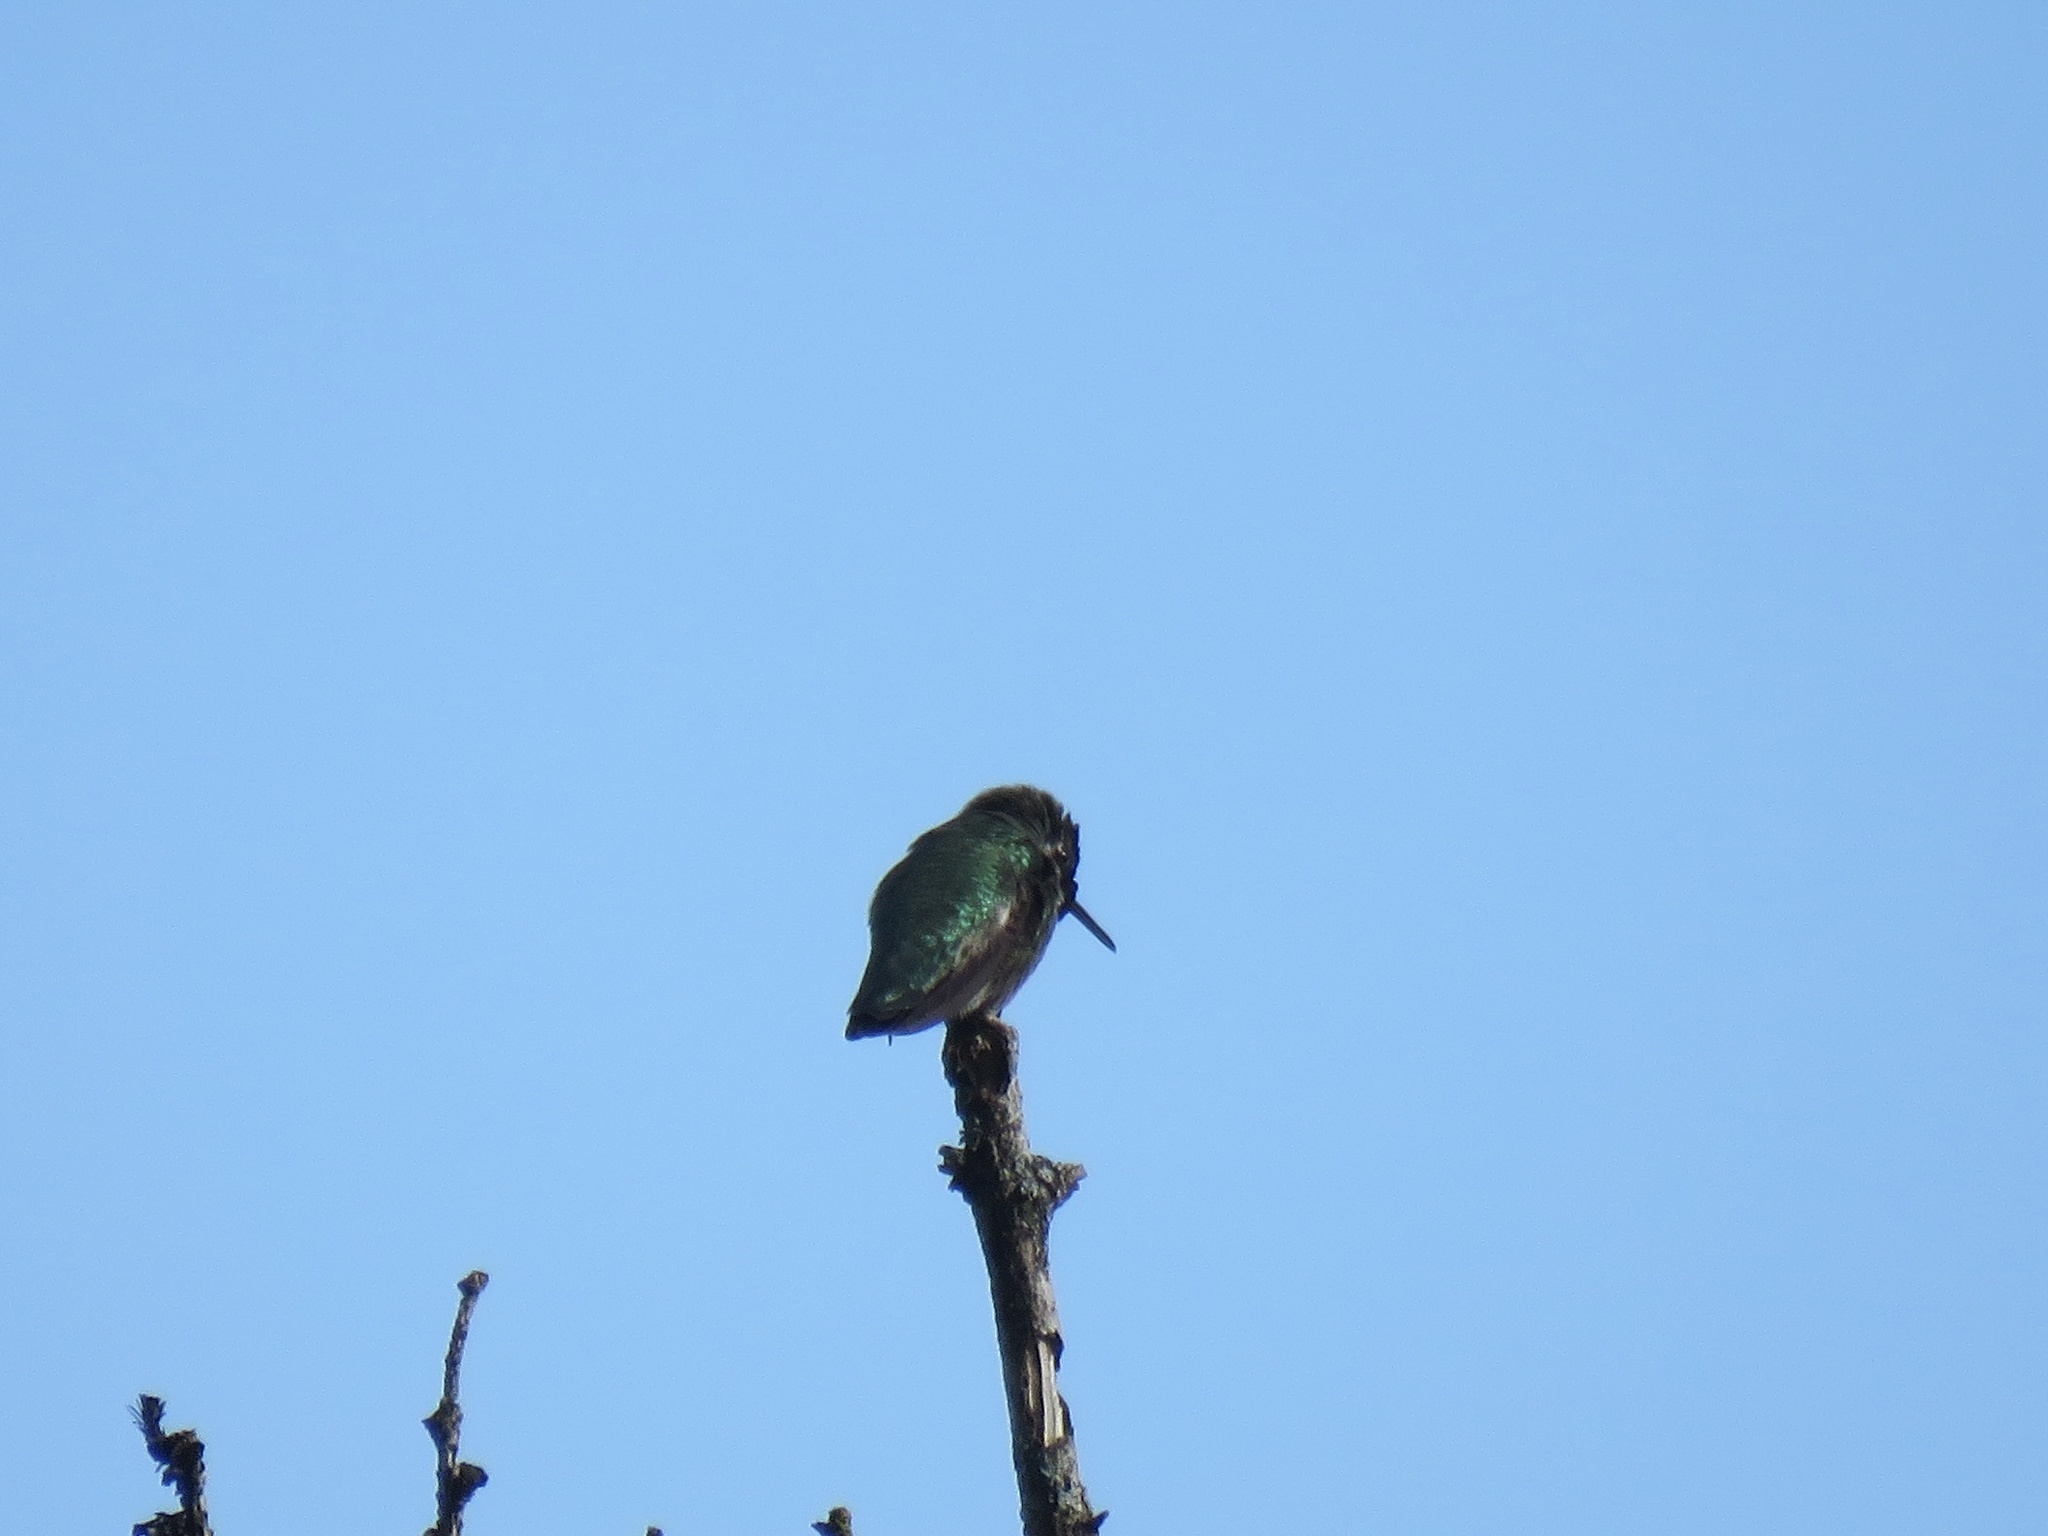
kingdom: Animalia
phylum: Chordata
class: Aves
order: Apodiformes
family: Trochilidae
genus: Calypte
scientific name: Calypte anna
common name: Anna's hummingbird
